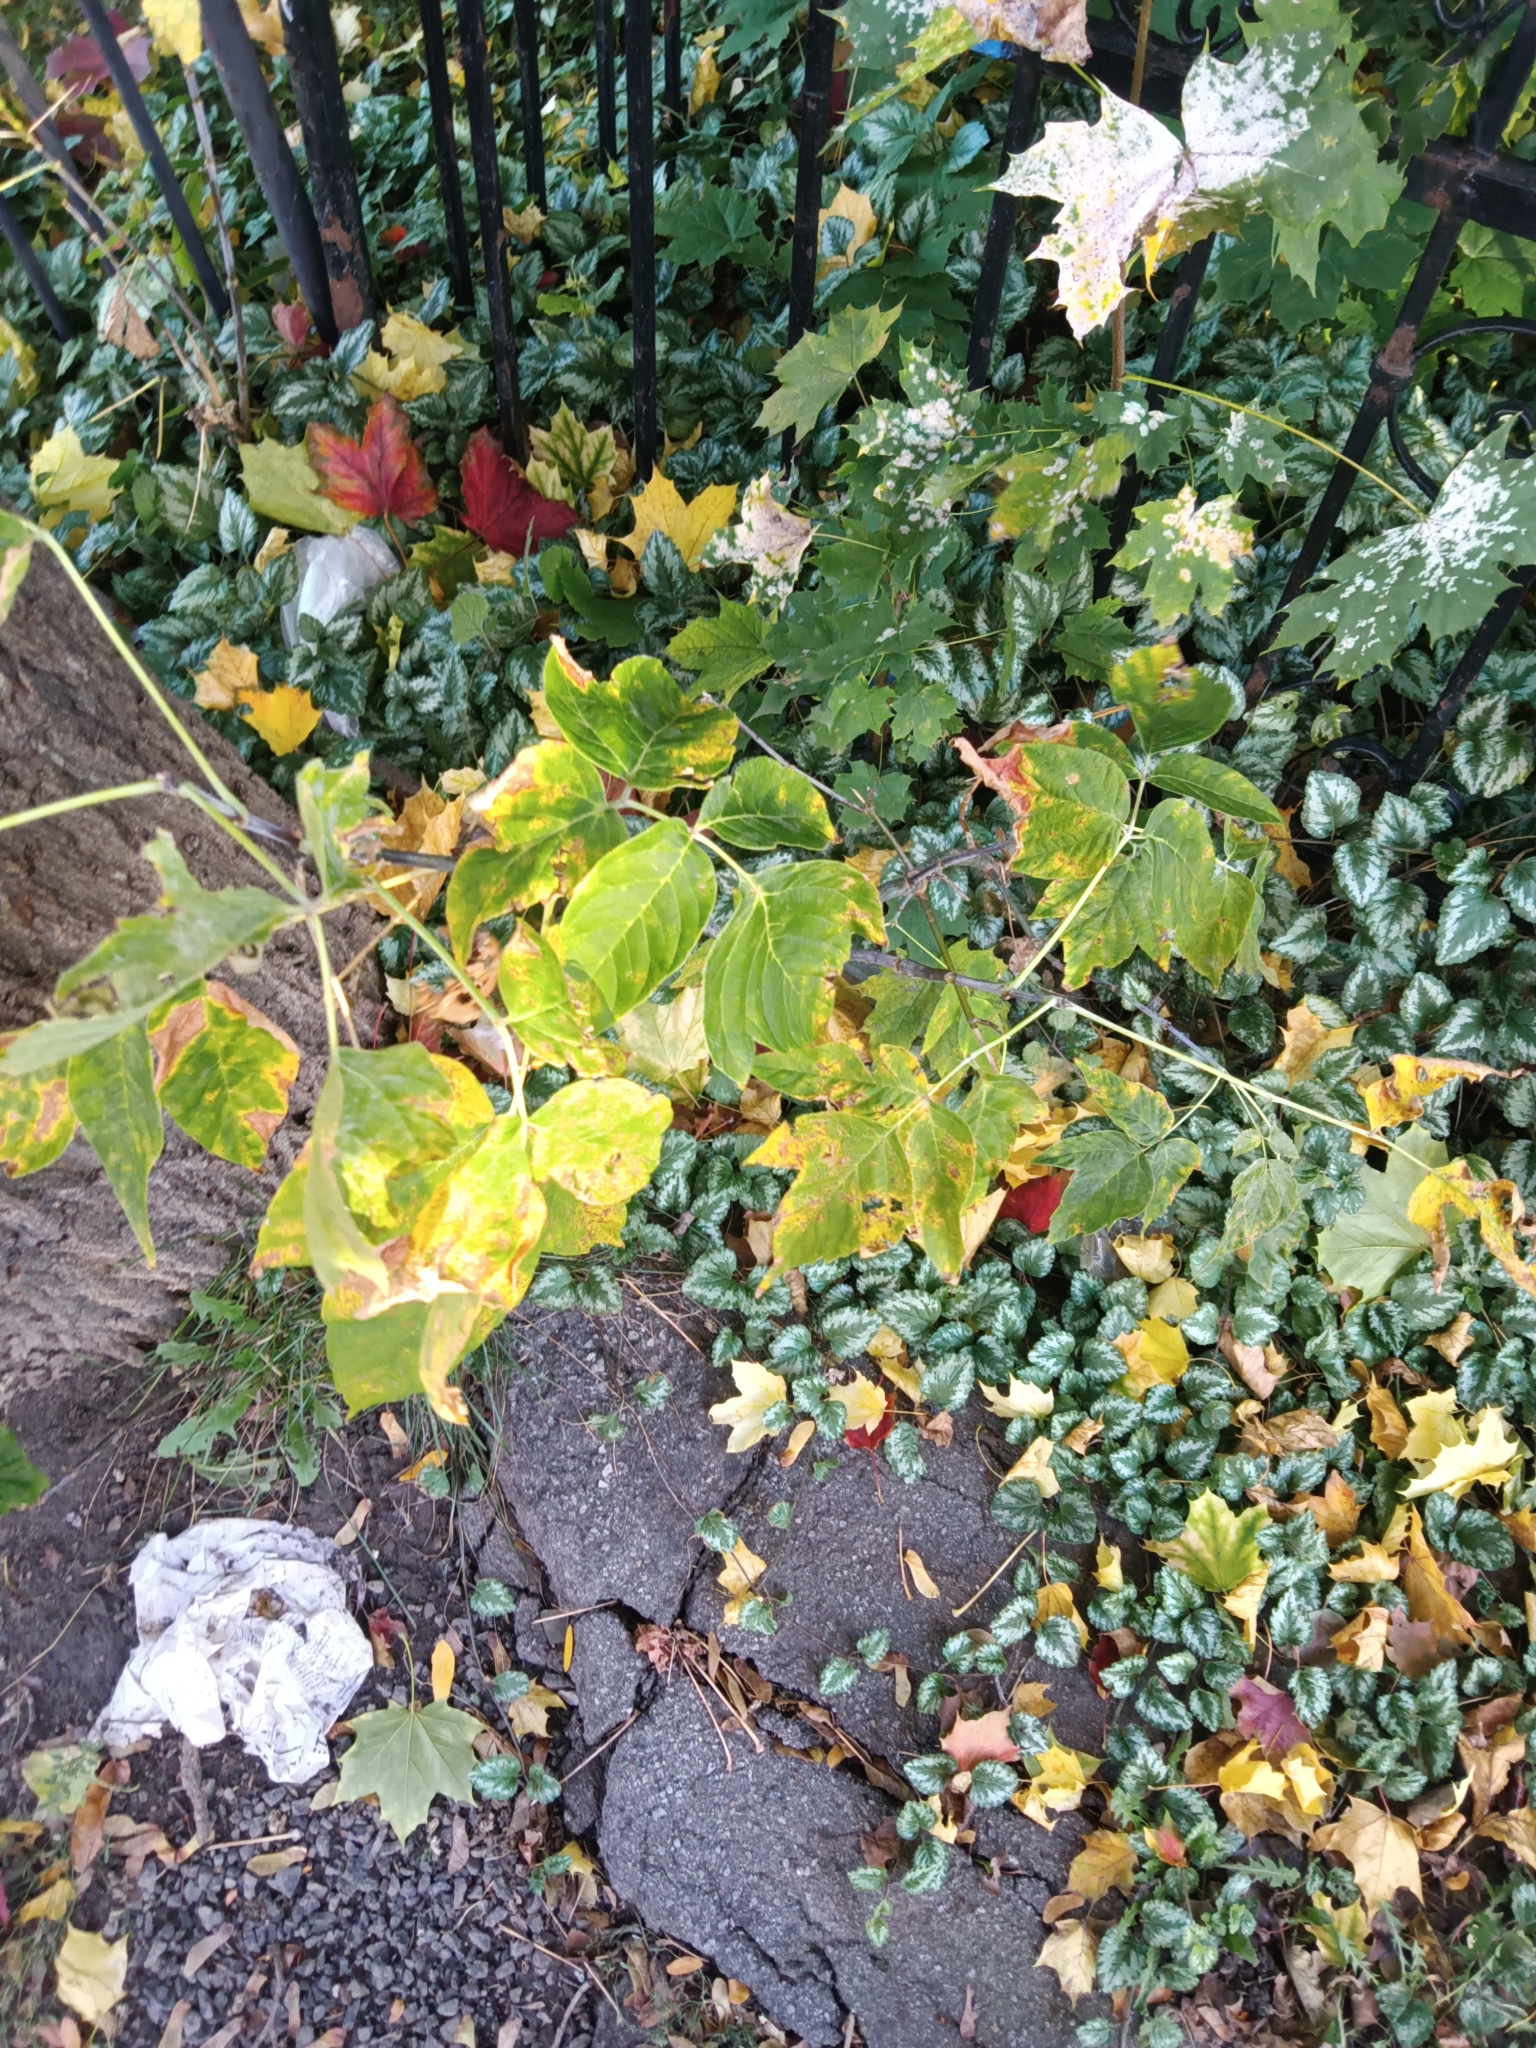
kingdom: Plantae
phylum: Tracheophyta
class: Magnoliopsida
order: Sapindales
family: Sapindaceae
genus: Acer
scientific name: Acer negundo
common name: Ashleaf maple
